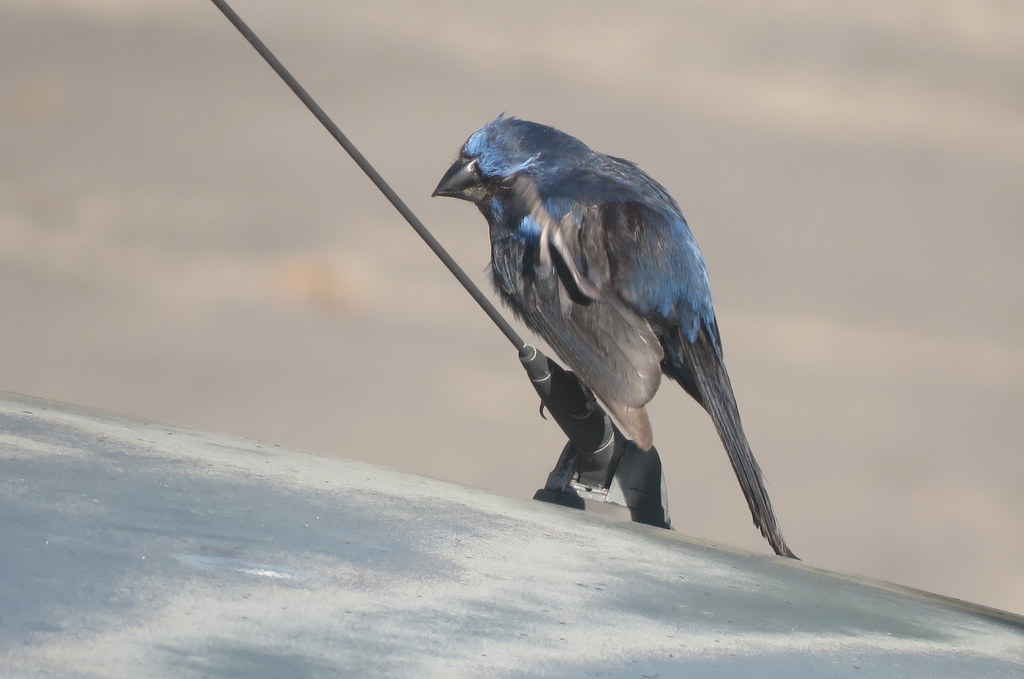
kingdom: Animalia
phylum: Chordata
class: Aves
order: Passeriformes
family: Cardinalidae
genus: Cyanoloxia
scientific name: Cyanoloxia brissonii
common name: Ultramarine grosbeak
